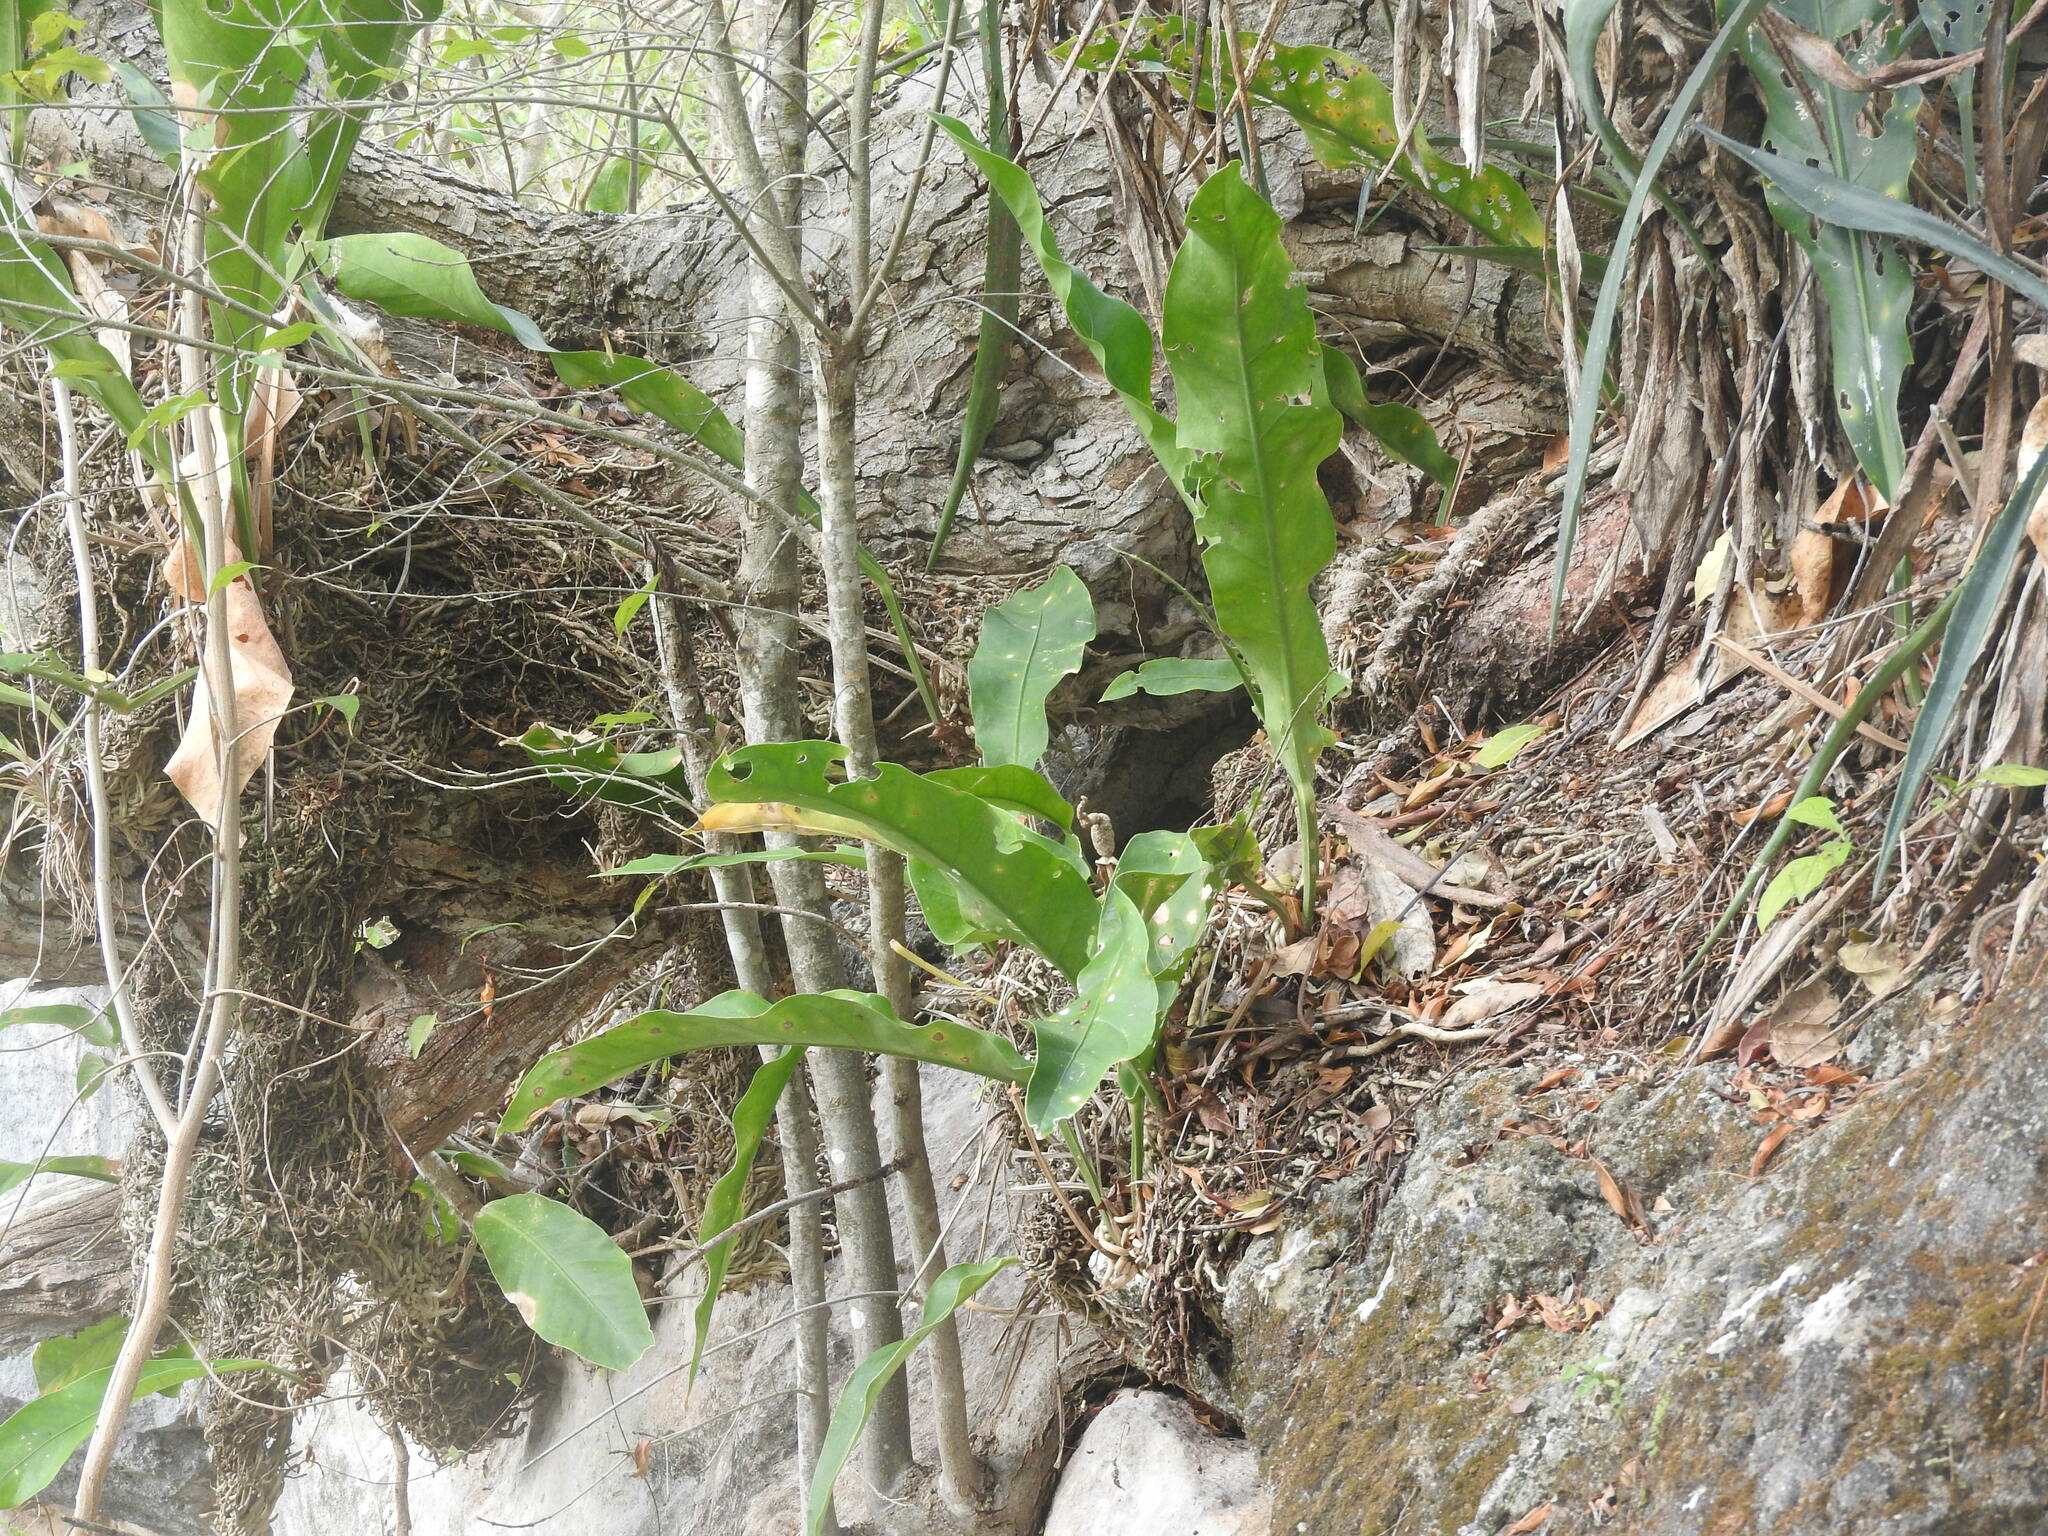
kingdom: Plantae
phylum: Tracheophyta
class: Liliopsida
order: Alismatales
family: Araceae
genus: Anthurium
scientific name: Anthurium schlechtendalii
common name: Laceleaf
